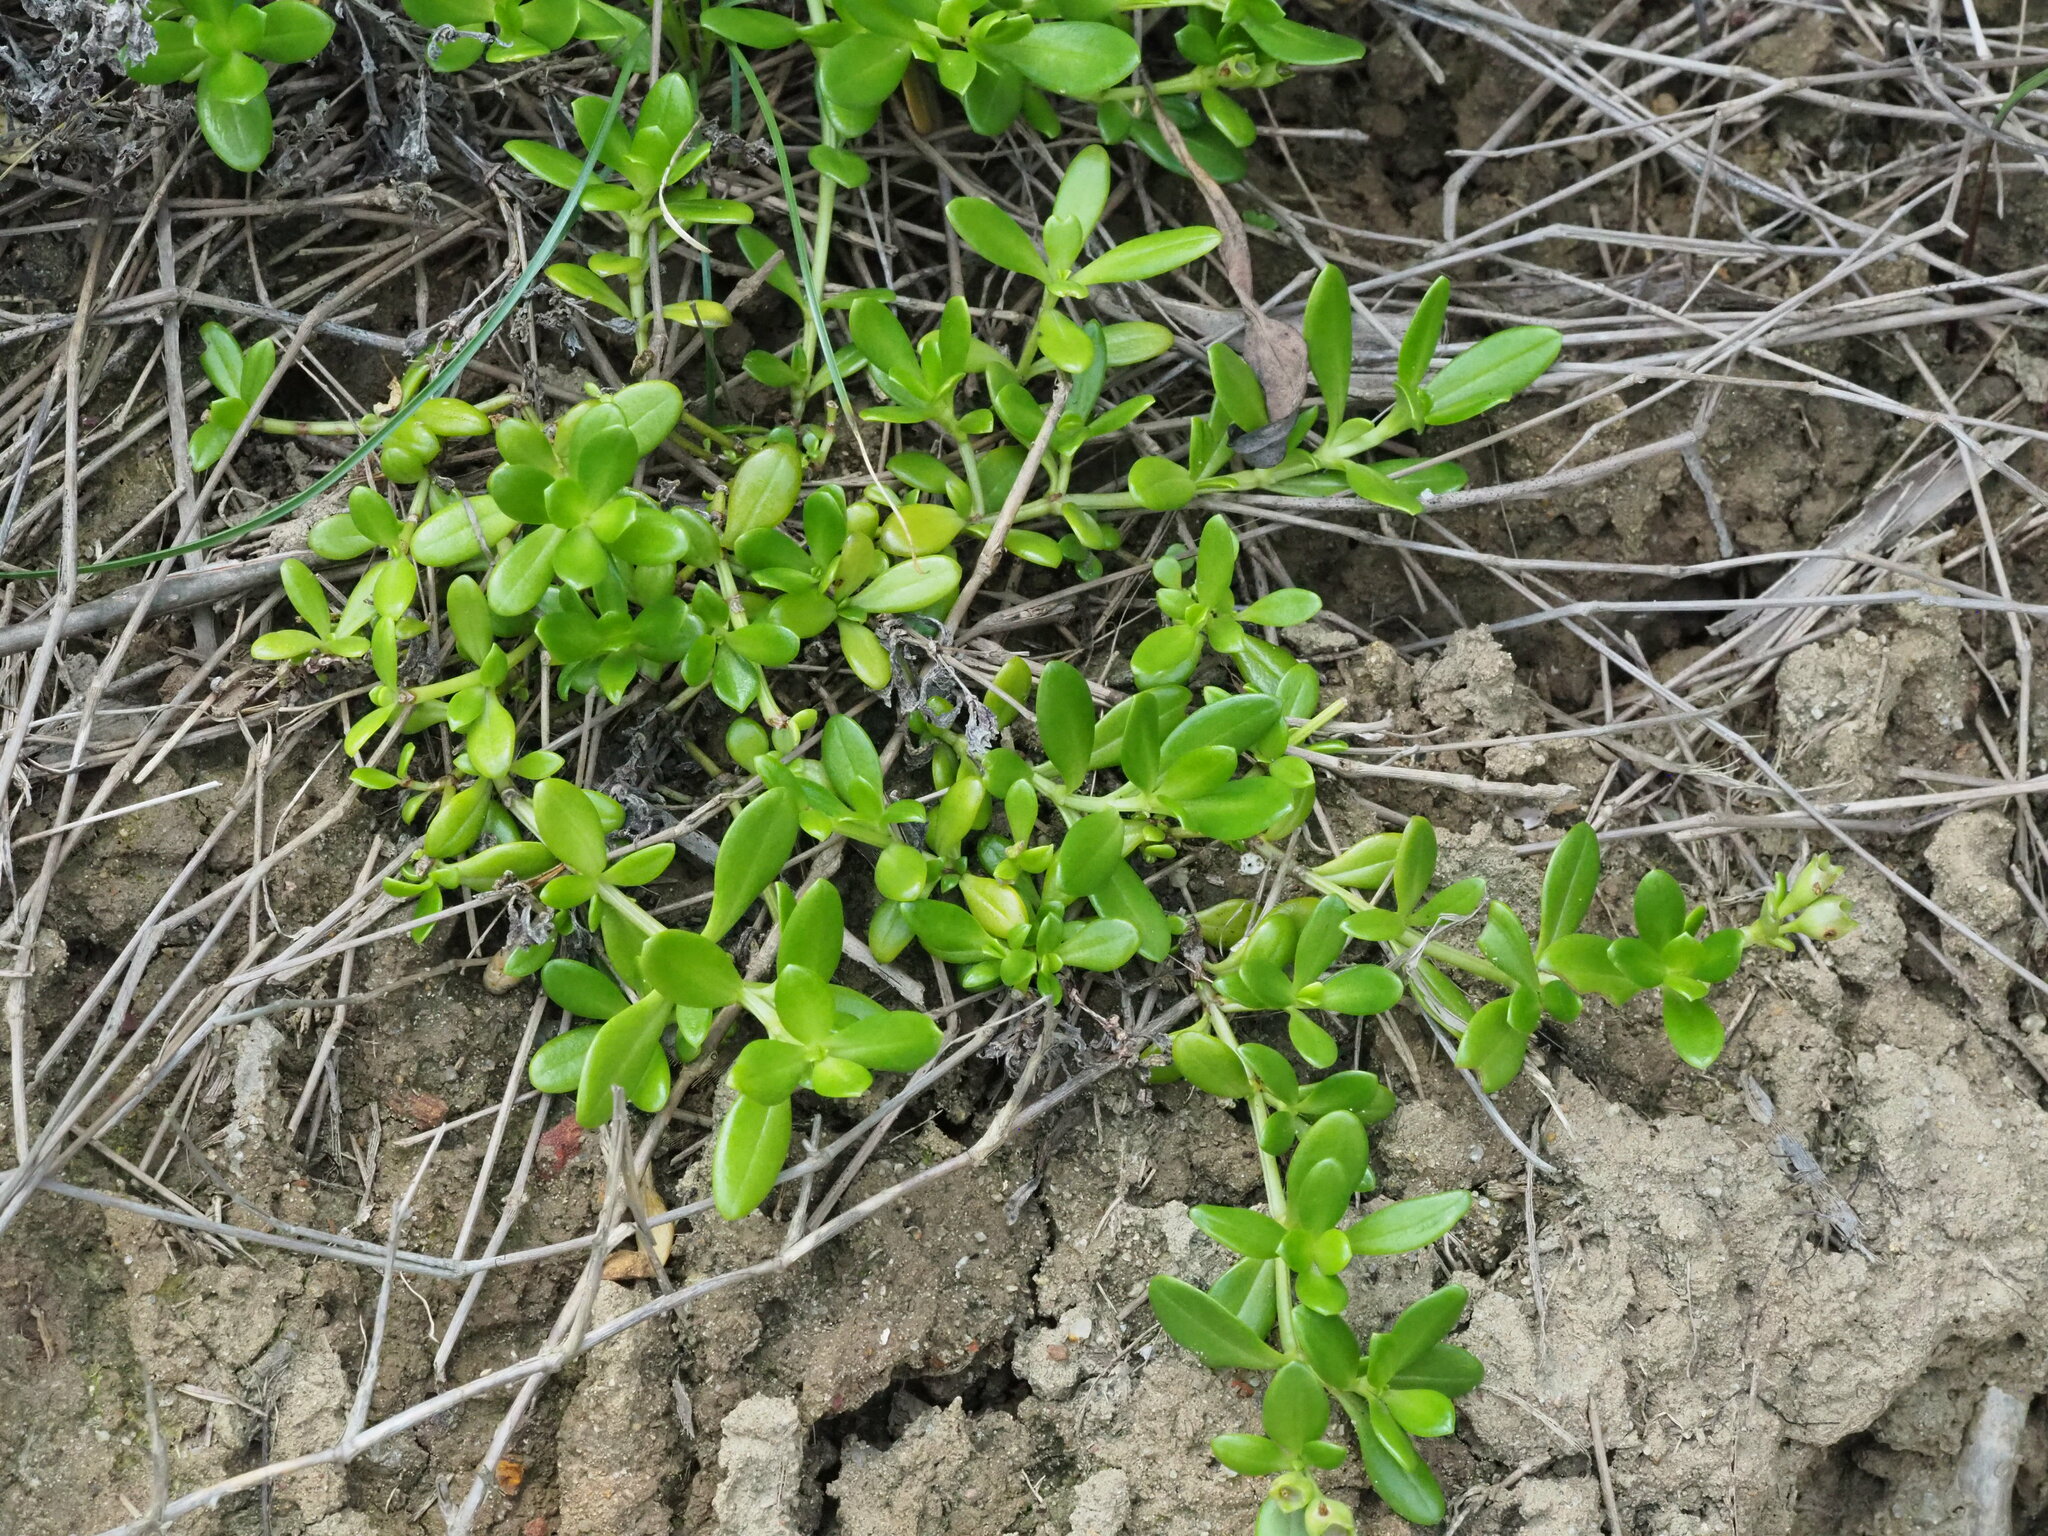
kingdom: Plantae
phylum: Tracheophyta
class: Magnoliopsida
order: Gentianales
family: Rubiaceae
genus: Leptopetalum
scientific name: Leptopetalum strigulosum
